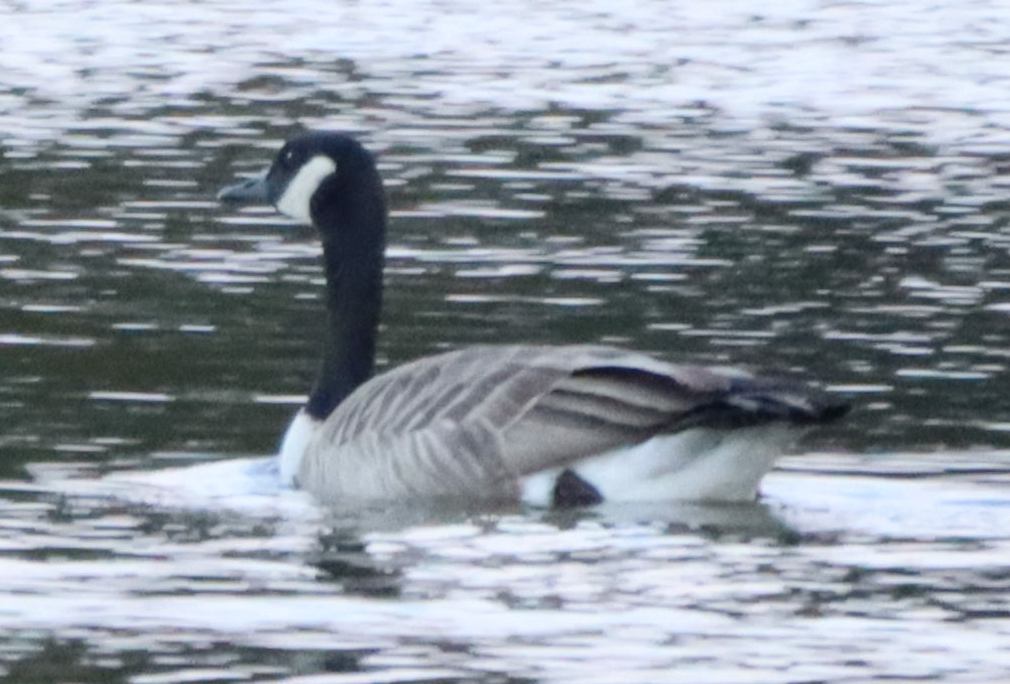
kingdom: Animalia
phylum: Chordata
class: Aves
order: Anseriformes
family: Anatidae
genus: Branta
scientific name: Branta canadensis
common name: Canada goose
